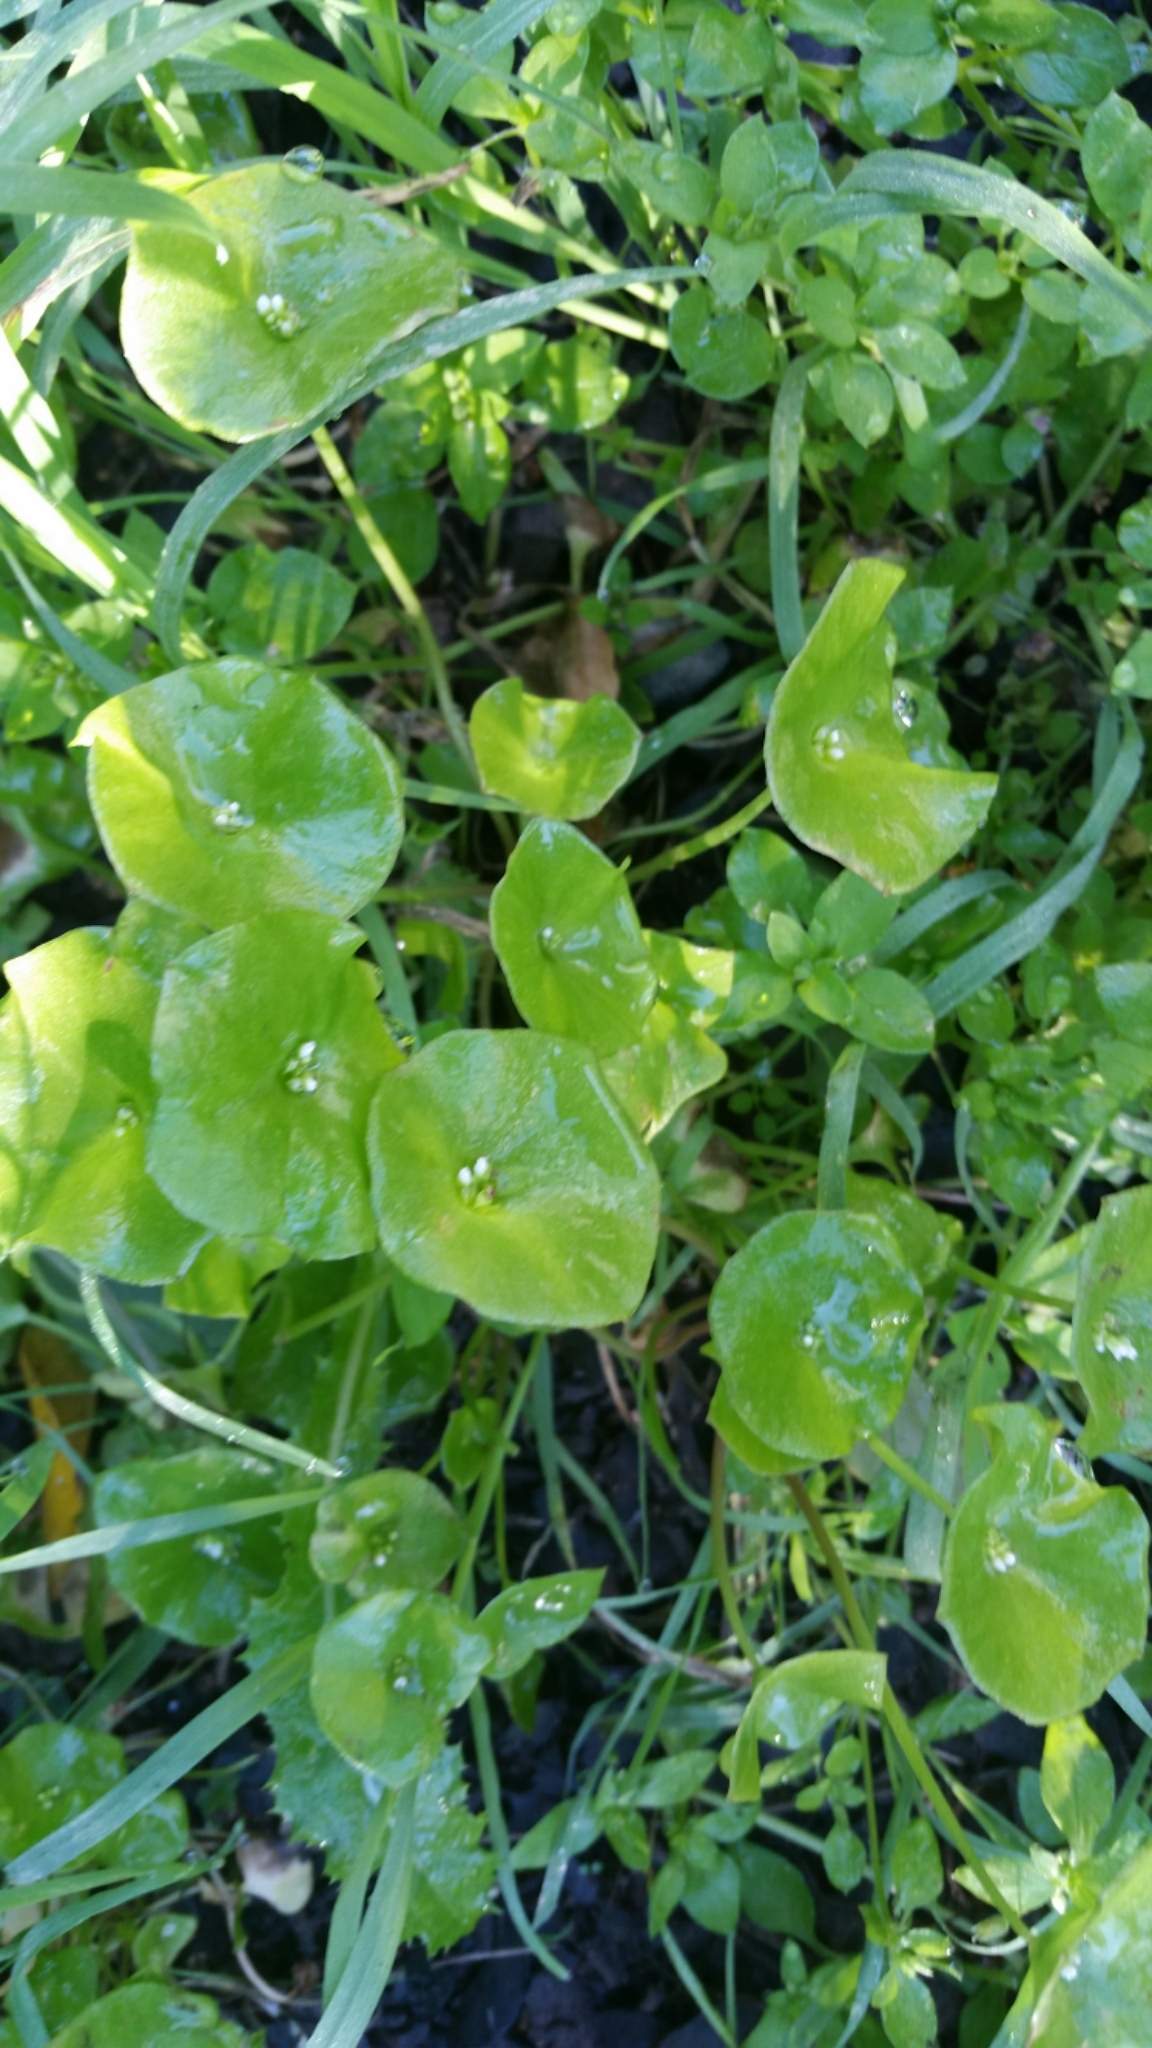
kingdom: Plantae
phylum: Tracheophyta
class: Magnoliopsida
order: Caryophyllales
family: Montiaceae
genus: Claytonia
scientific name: Claytonia perfoliata
